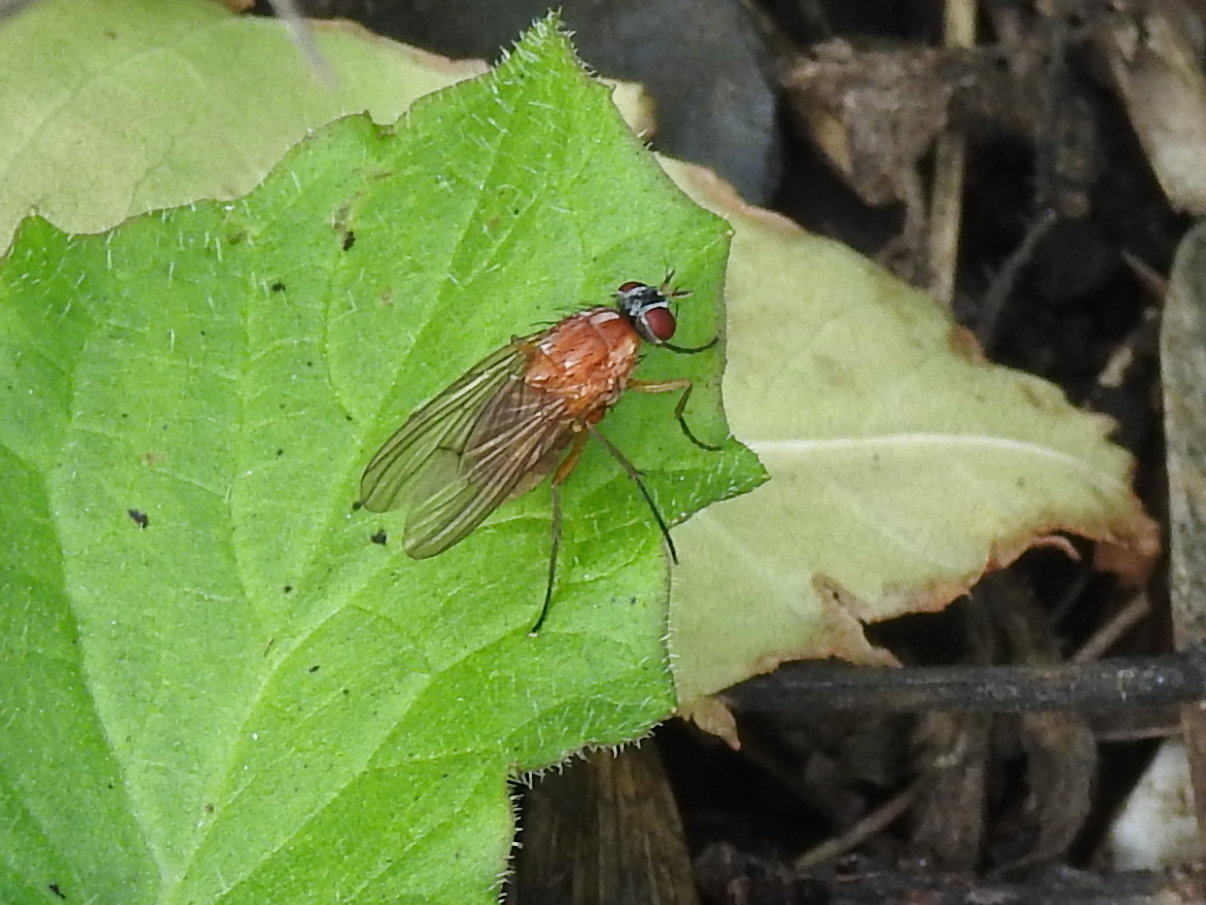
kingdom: Animalia
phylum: Arthropoda
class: Insecta
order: Diptera
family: Muscidae
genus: Thricops
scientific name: Thricops diaphanus
